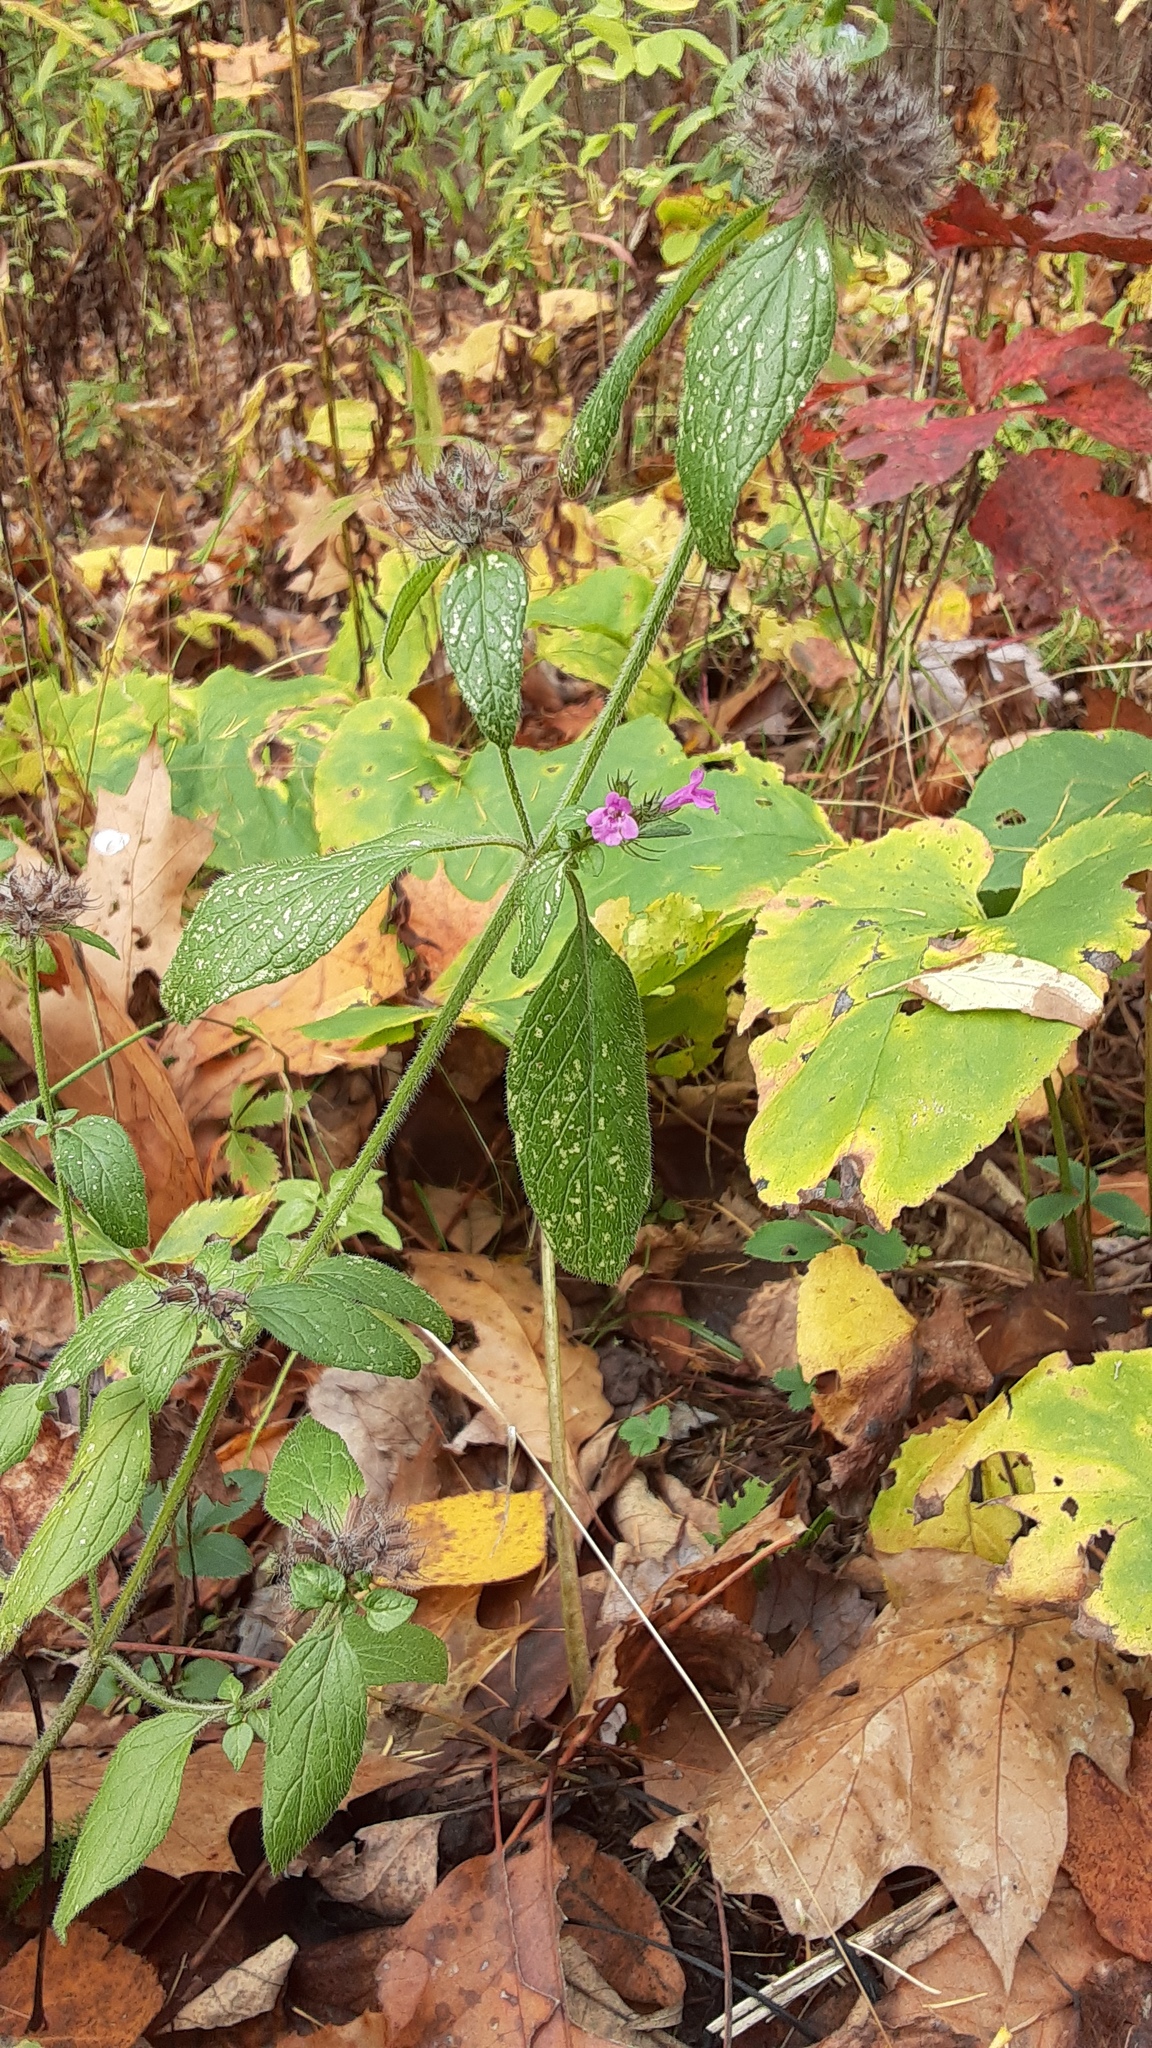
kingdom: Plantae
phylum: Tracheophyta
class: Magnoliopsida
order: Lamiales
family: Lamiaceae
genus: Clinopodium
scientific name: Clinopodium vulgare
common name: Wild basil
